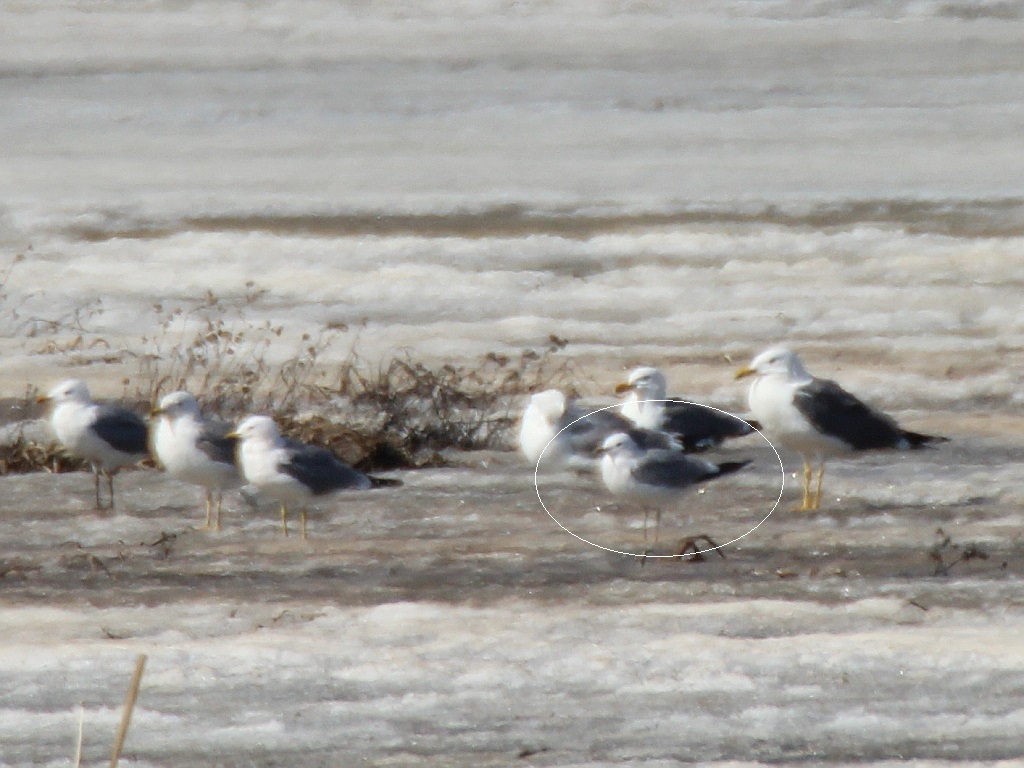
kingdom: Animalia
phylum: Chordata
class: Aves
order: Charadriiformes
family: Laridae
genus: Larus
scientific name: Larus canus
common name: Mew gull
